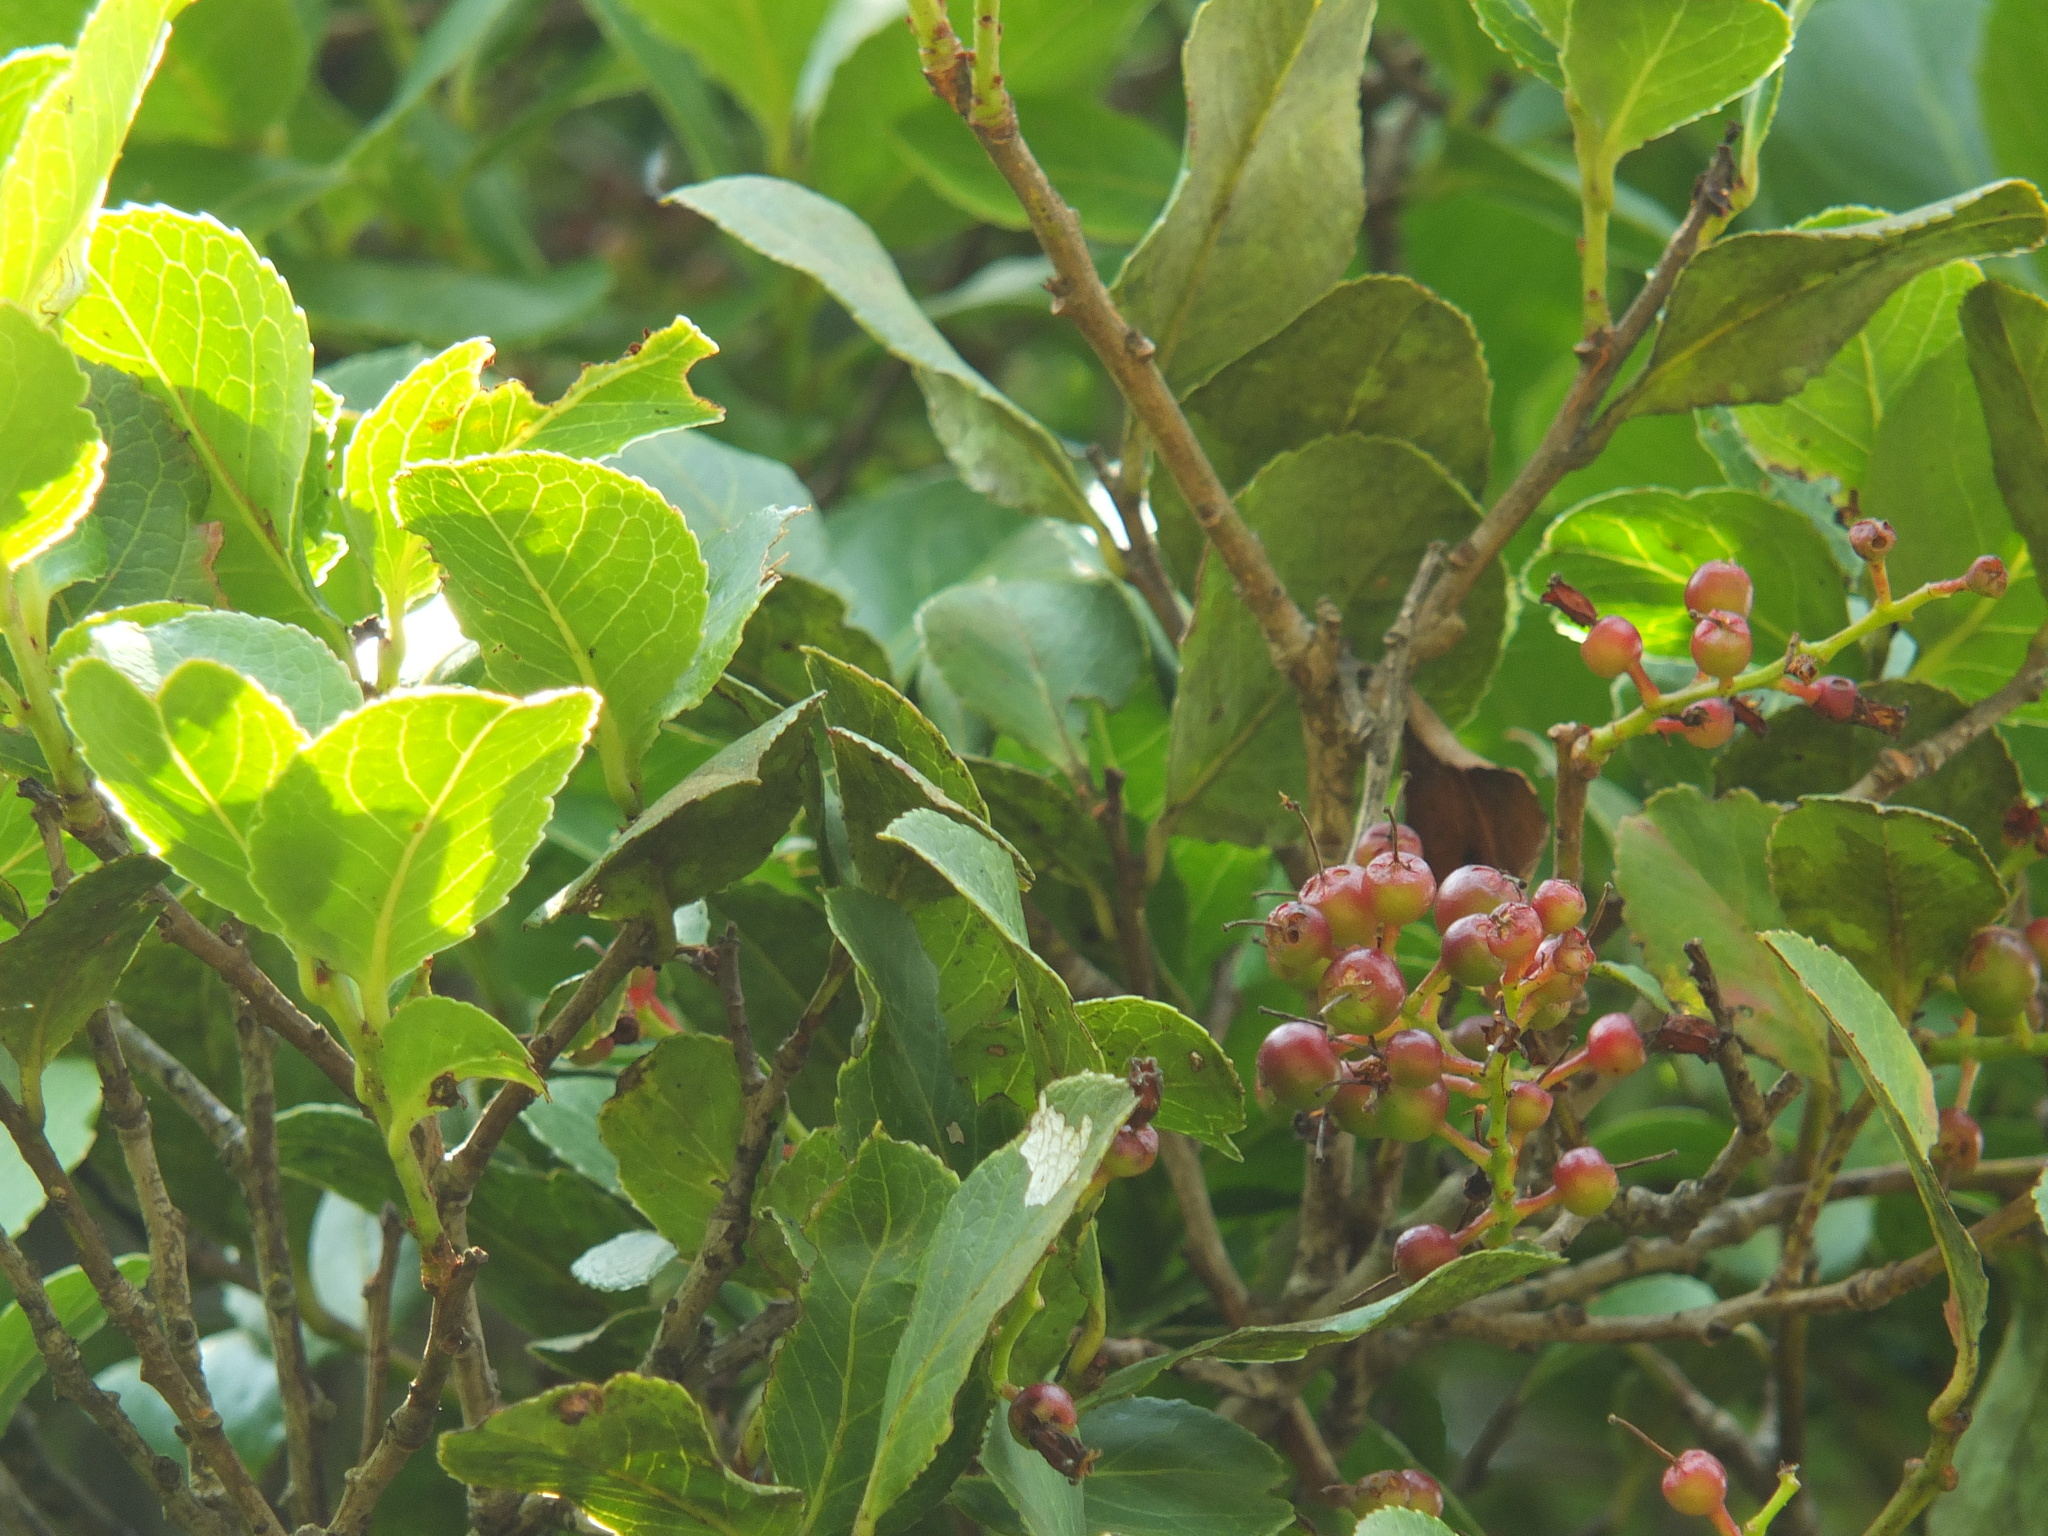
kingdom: Plantae
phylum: Tracheophyta
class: Magnoliopsida
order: Ericales
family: Ericaceae
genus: Vaccinium
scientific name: Vaccinium symplocifolium
